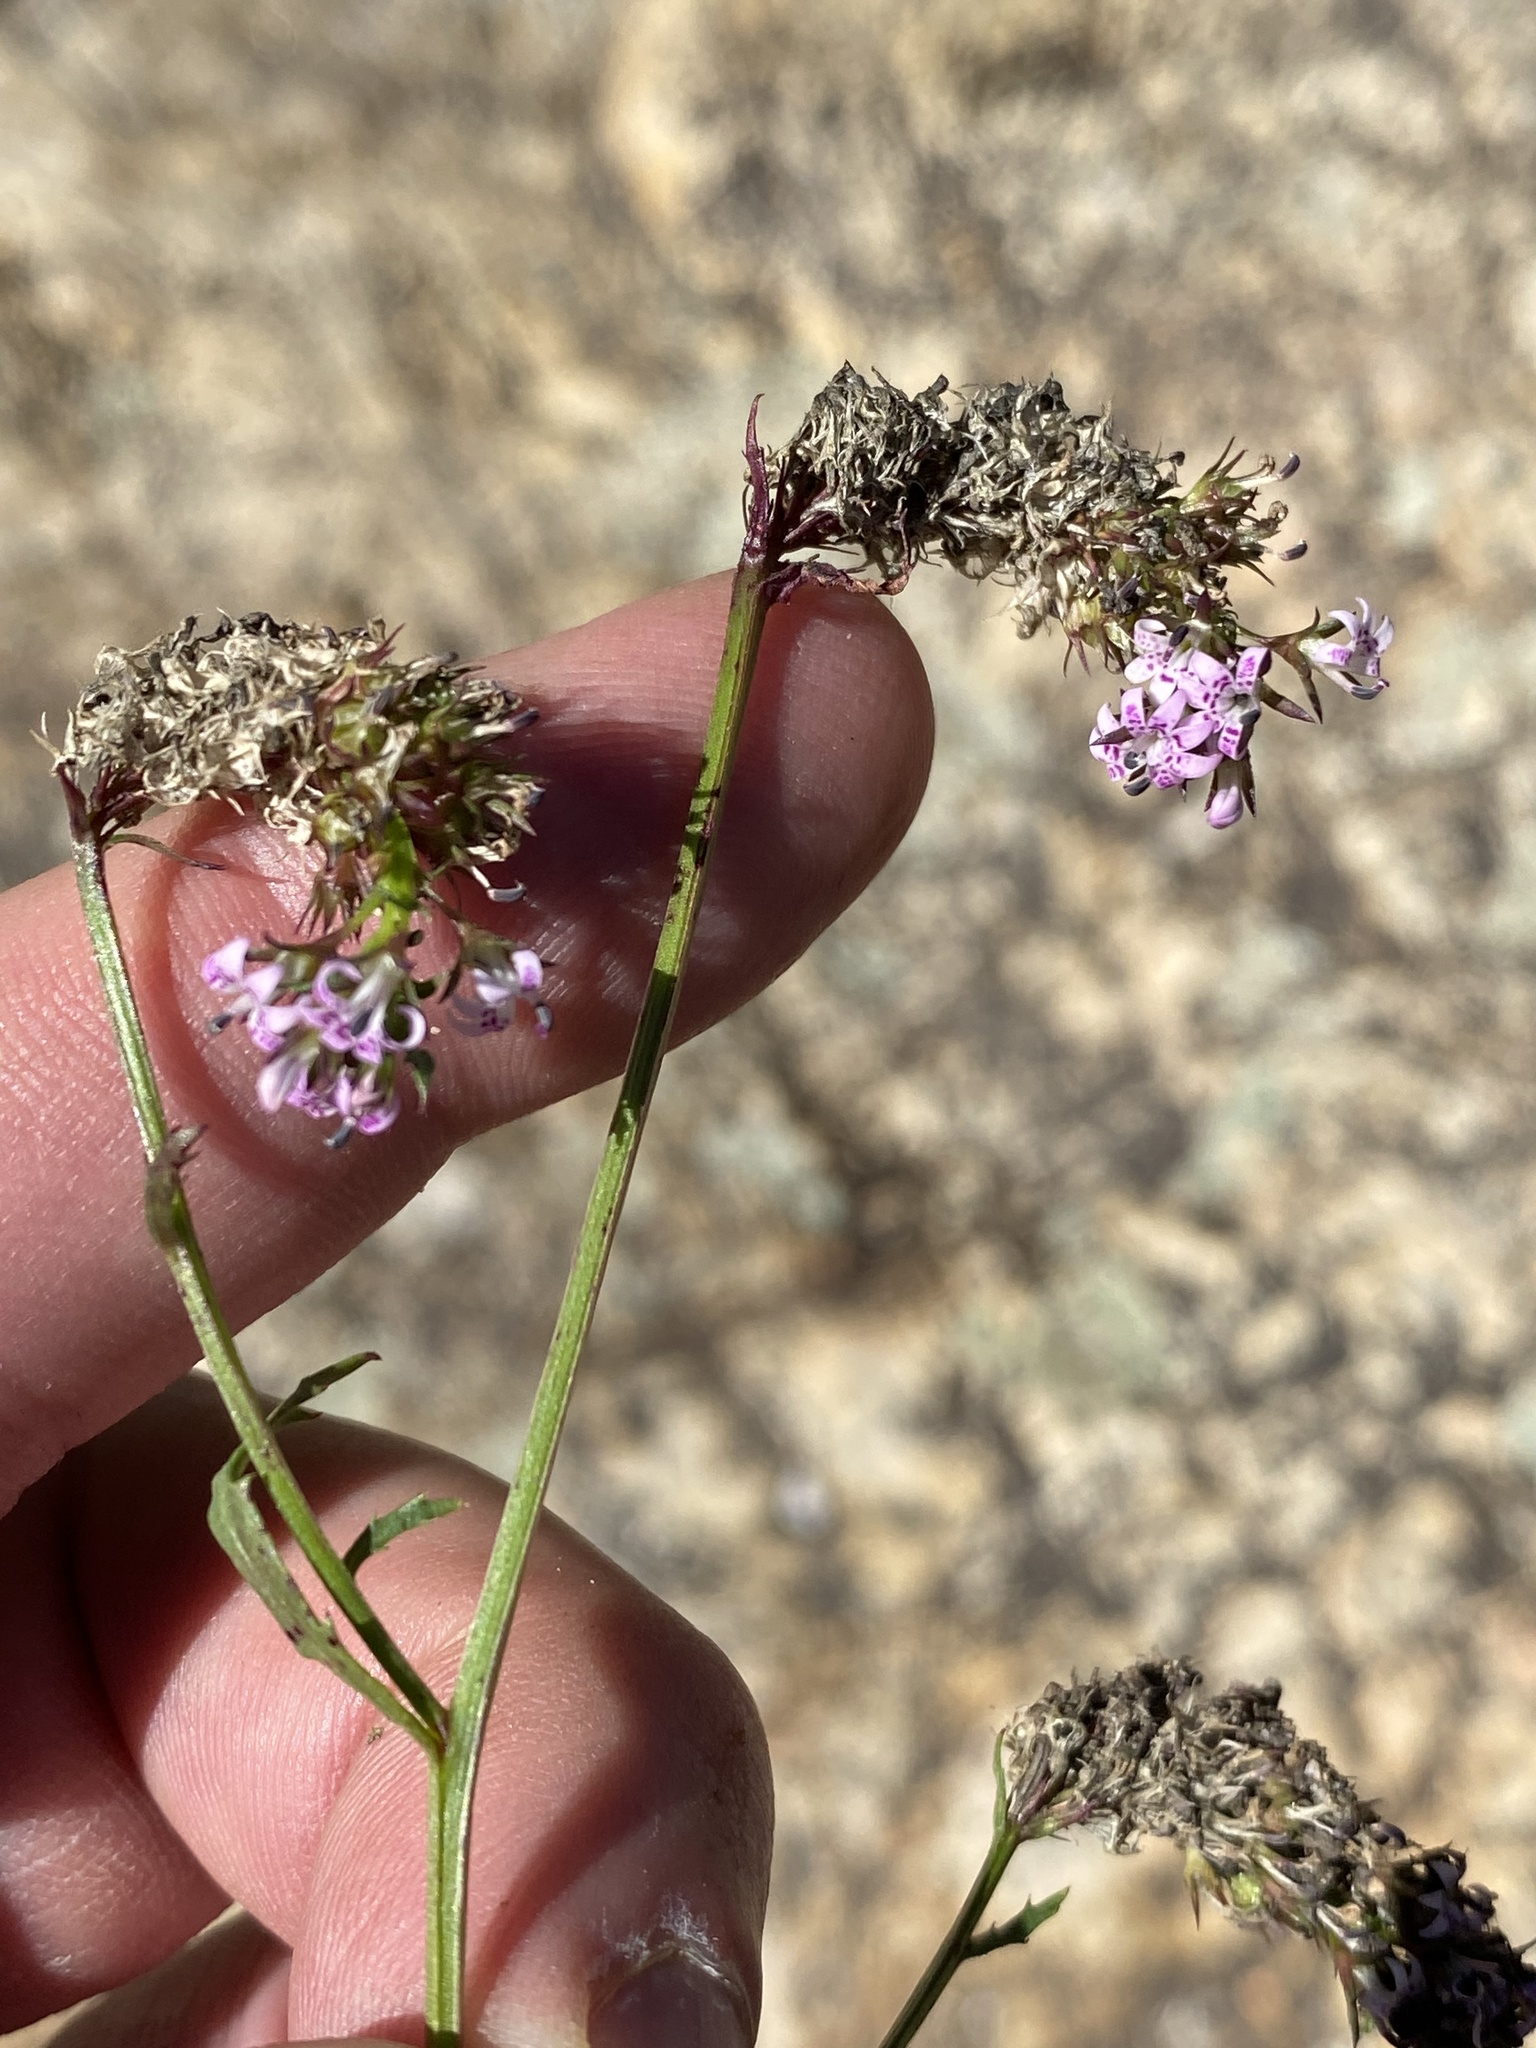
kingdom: Plantae
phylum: Tracheophyta
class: Magnoliopsida
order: Asterales
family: Campanulaceae
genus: Lobelia
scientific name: Lobelia jasionoides
